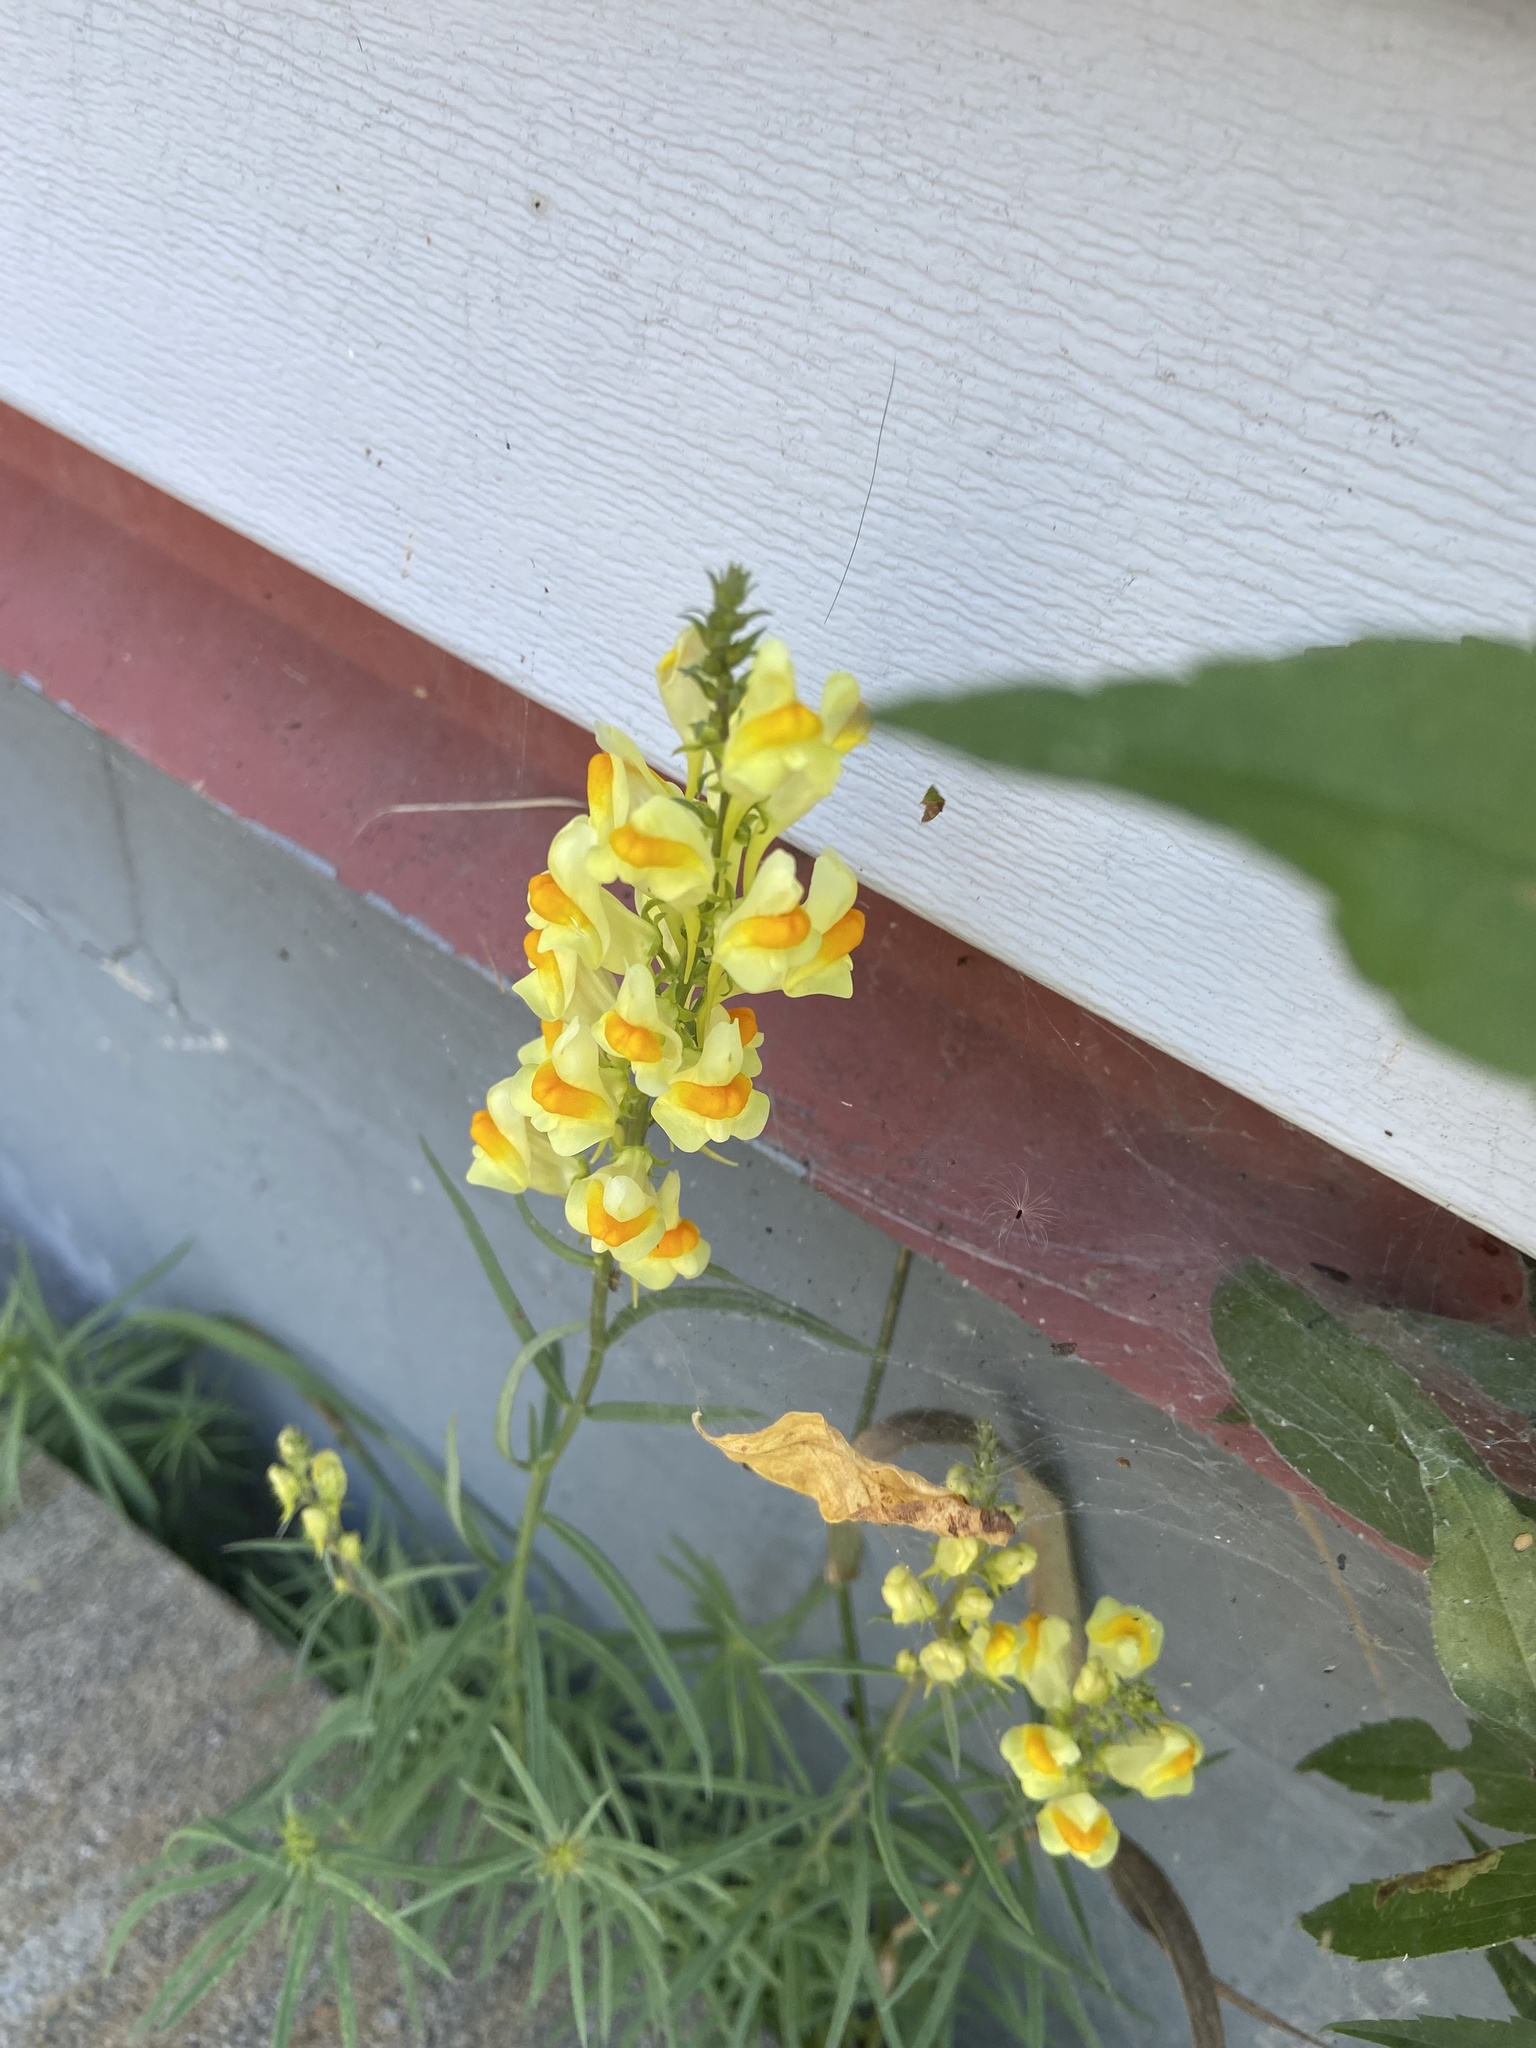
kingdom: Plantae
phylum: Tracheophyta
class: Magnoliopsida
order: Lamiales
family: Plantaginaceae
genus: Linaria
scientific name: Linaria vulgaris
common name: Butter and eggs
